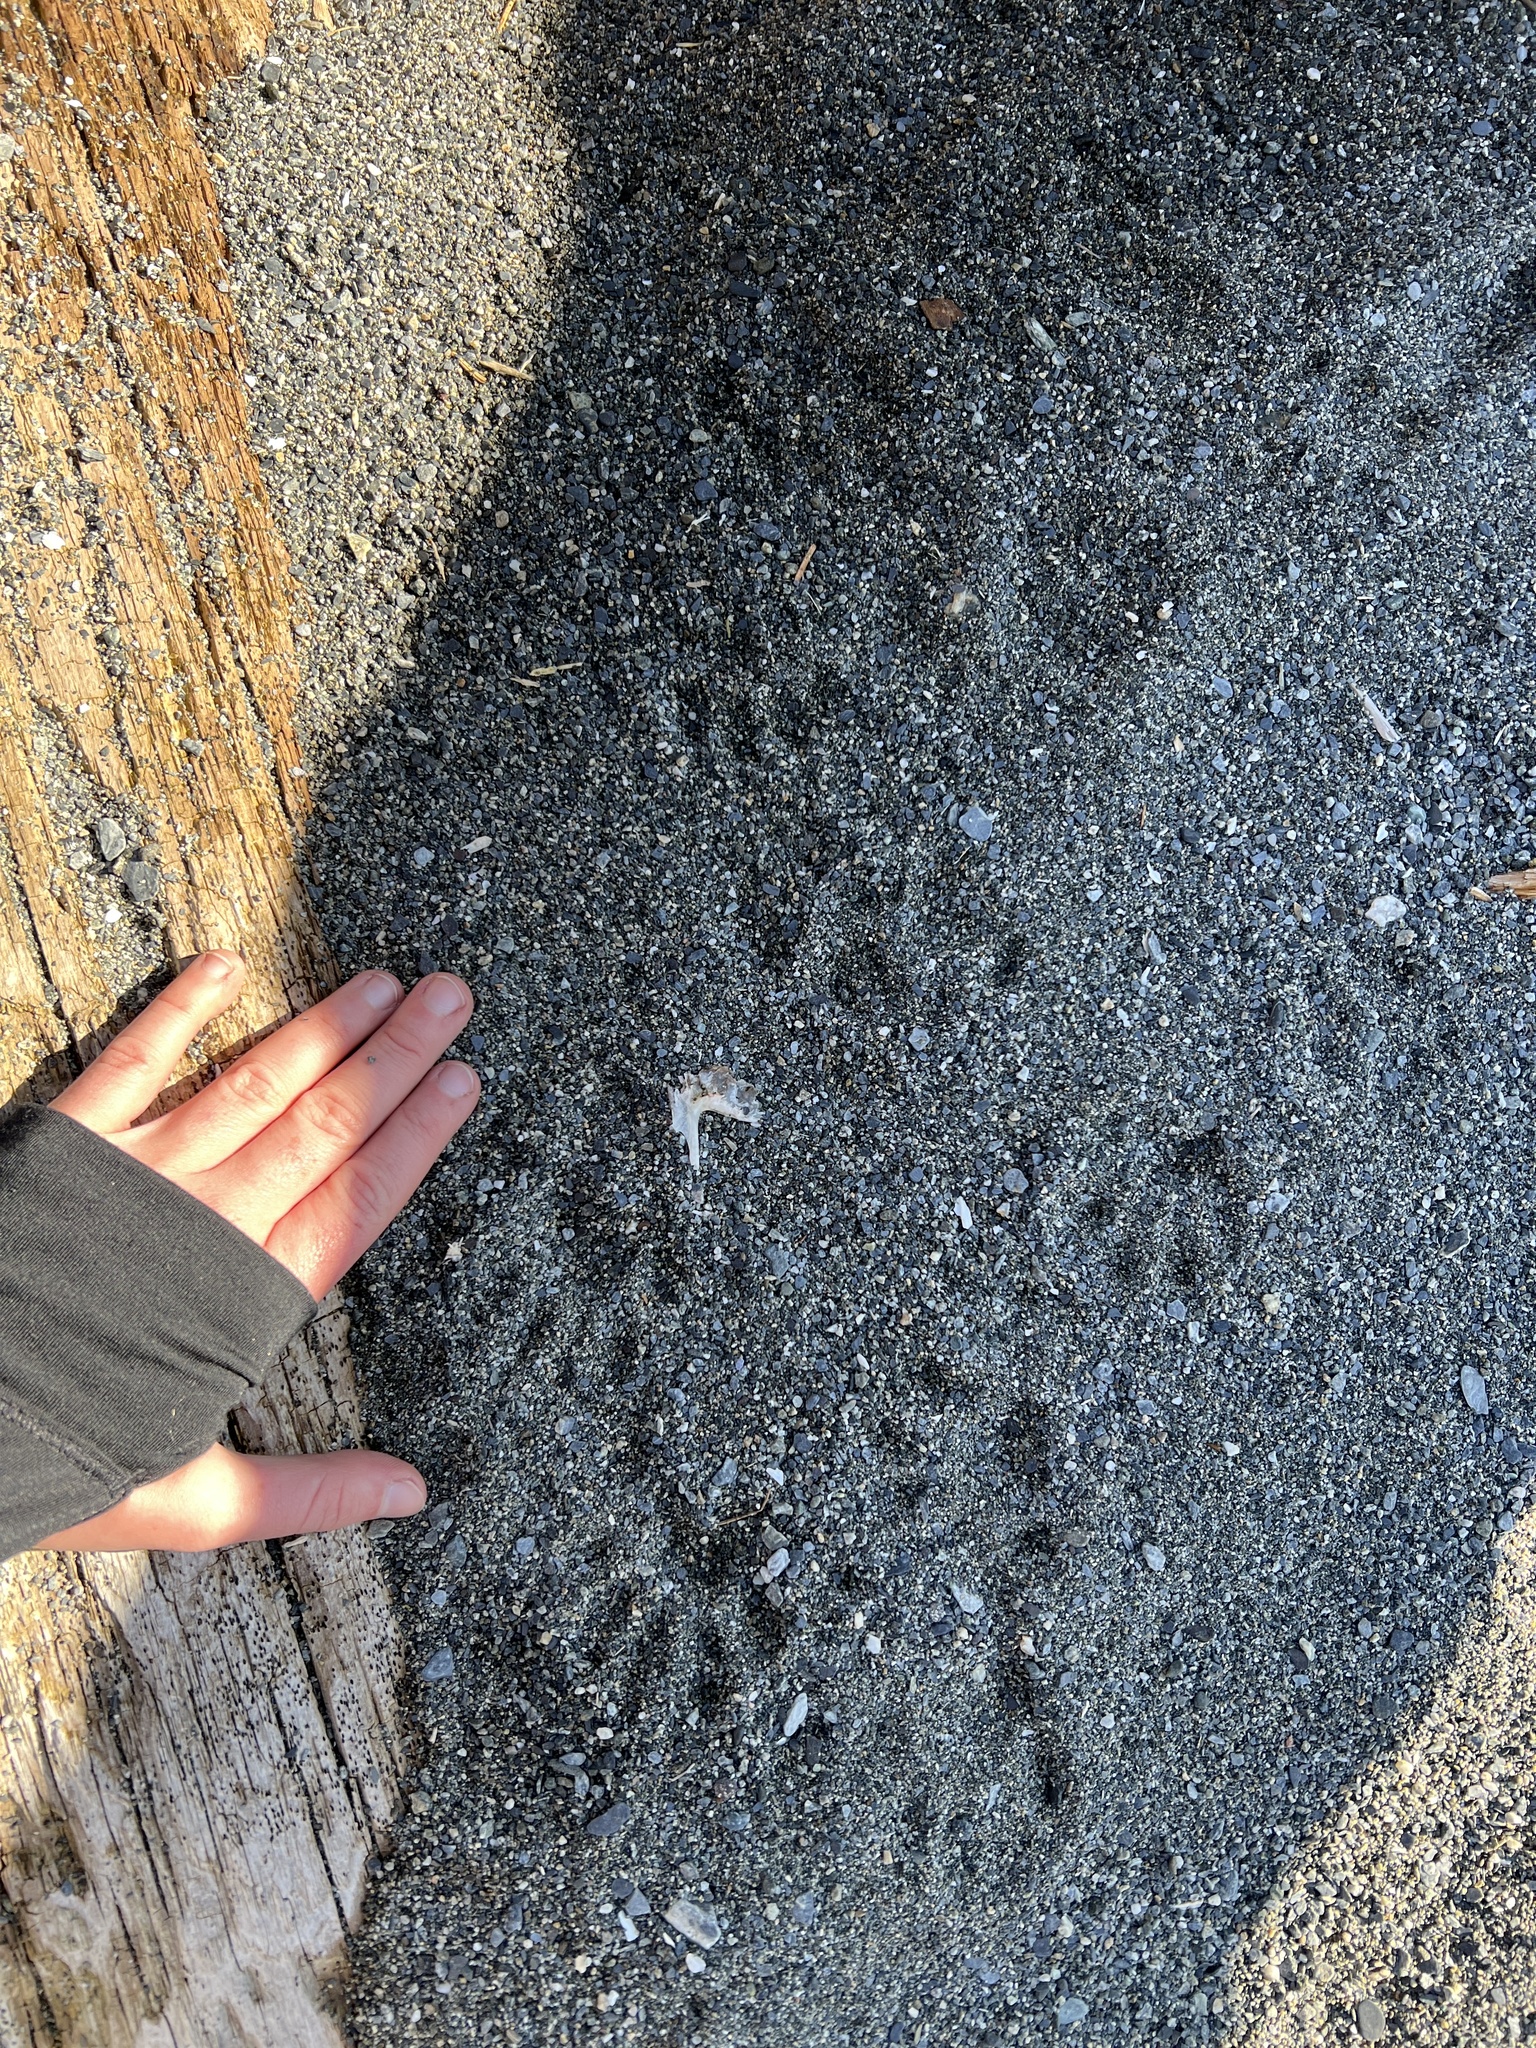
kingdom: Animalia
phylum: Chordata
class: Mammalia
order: Carnivora
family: Procyonidae
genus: Procyon
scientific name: Procyon lotor
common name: Raccoon
